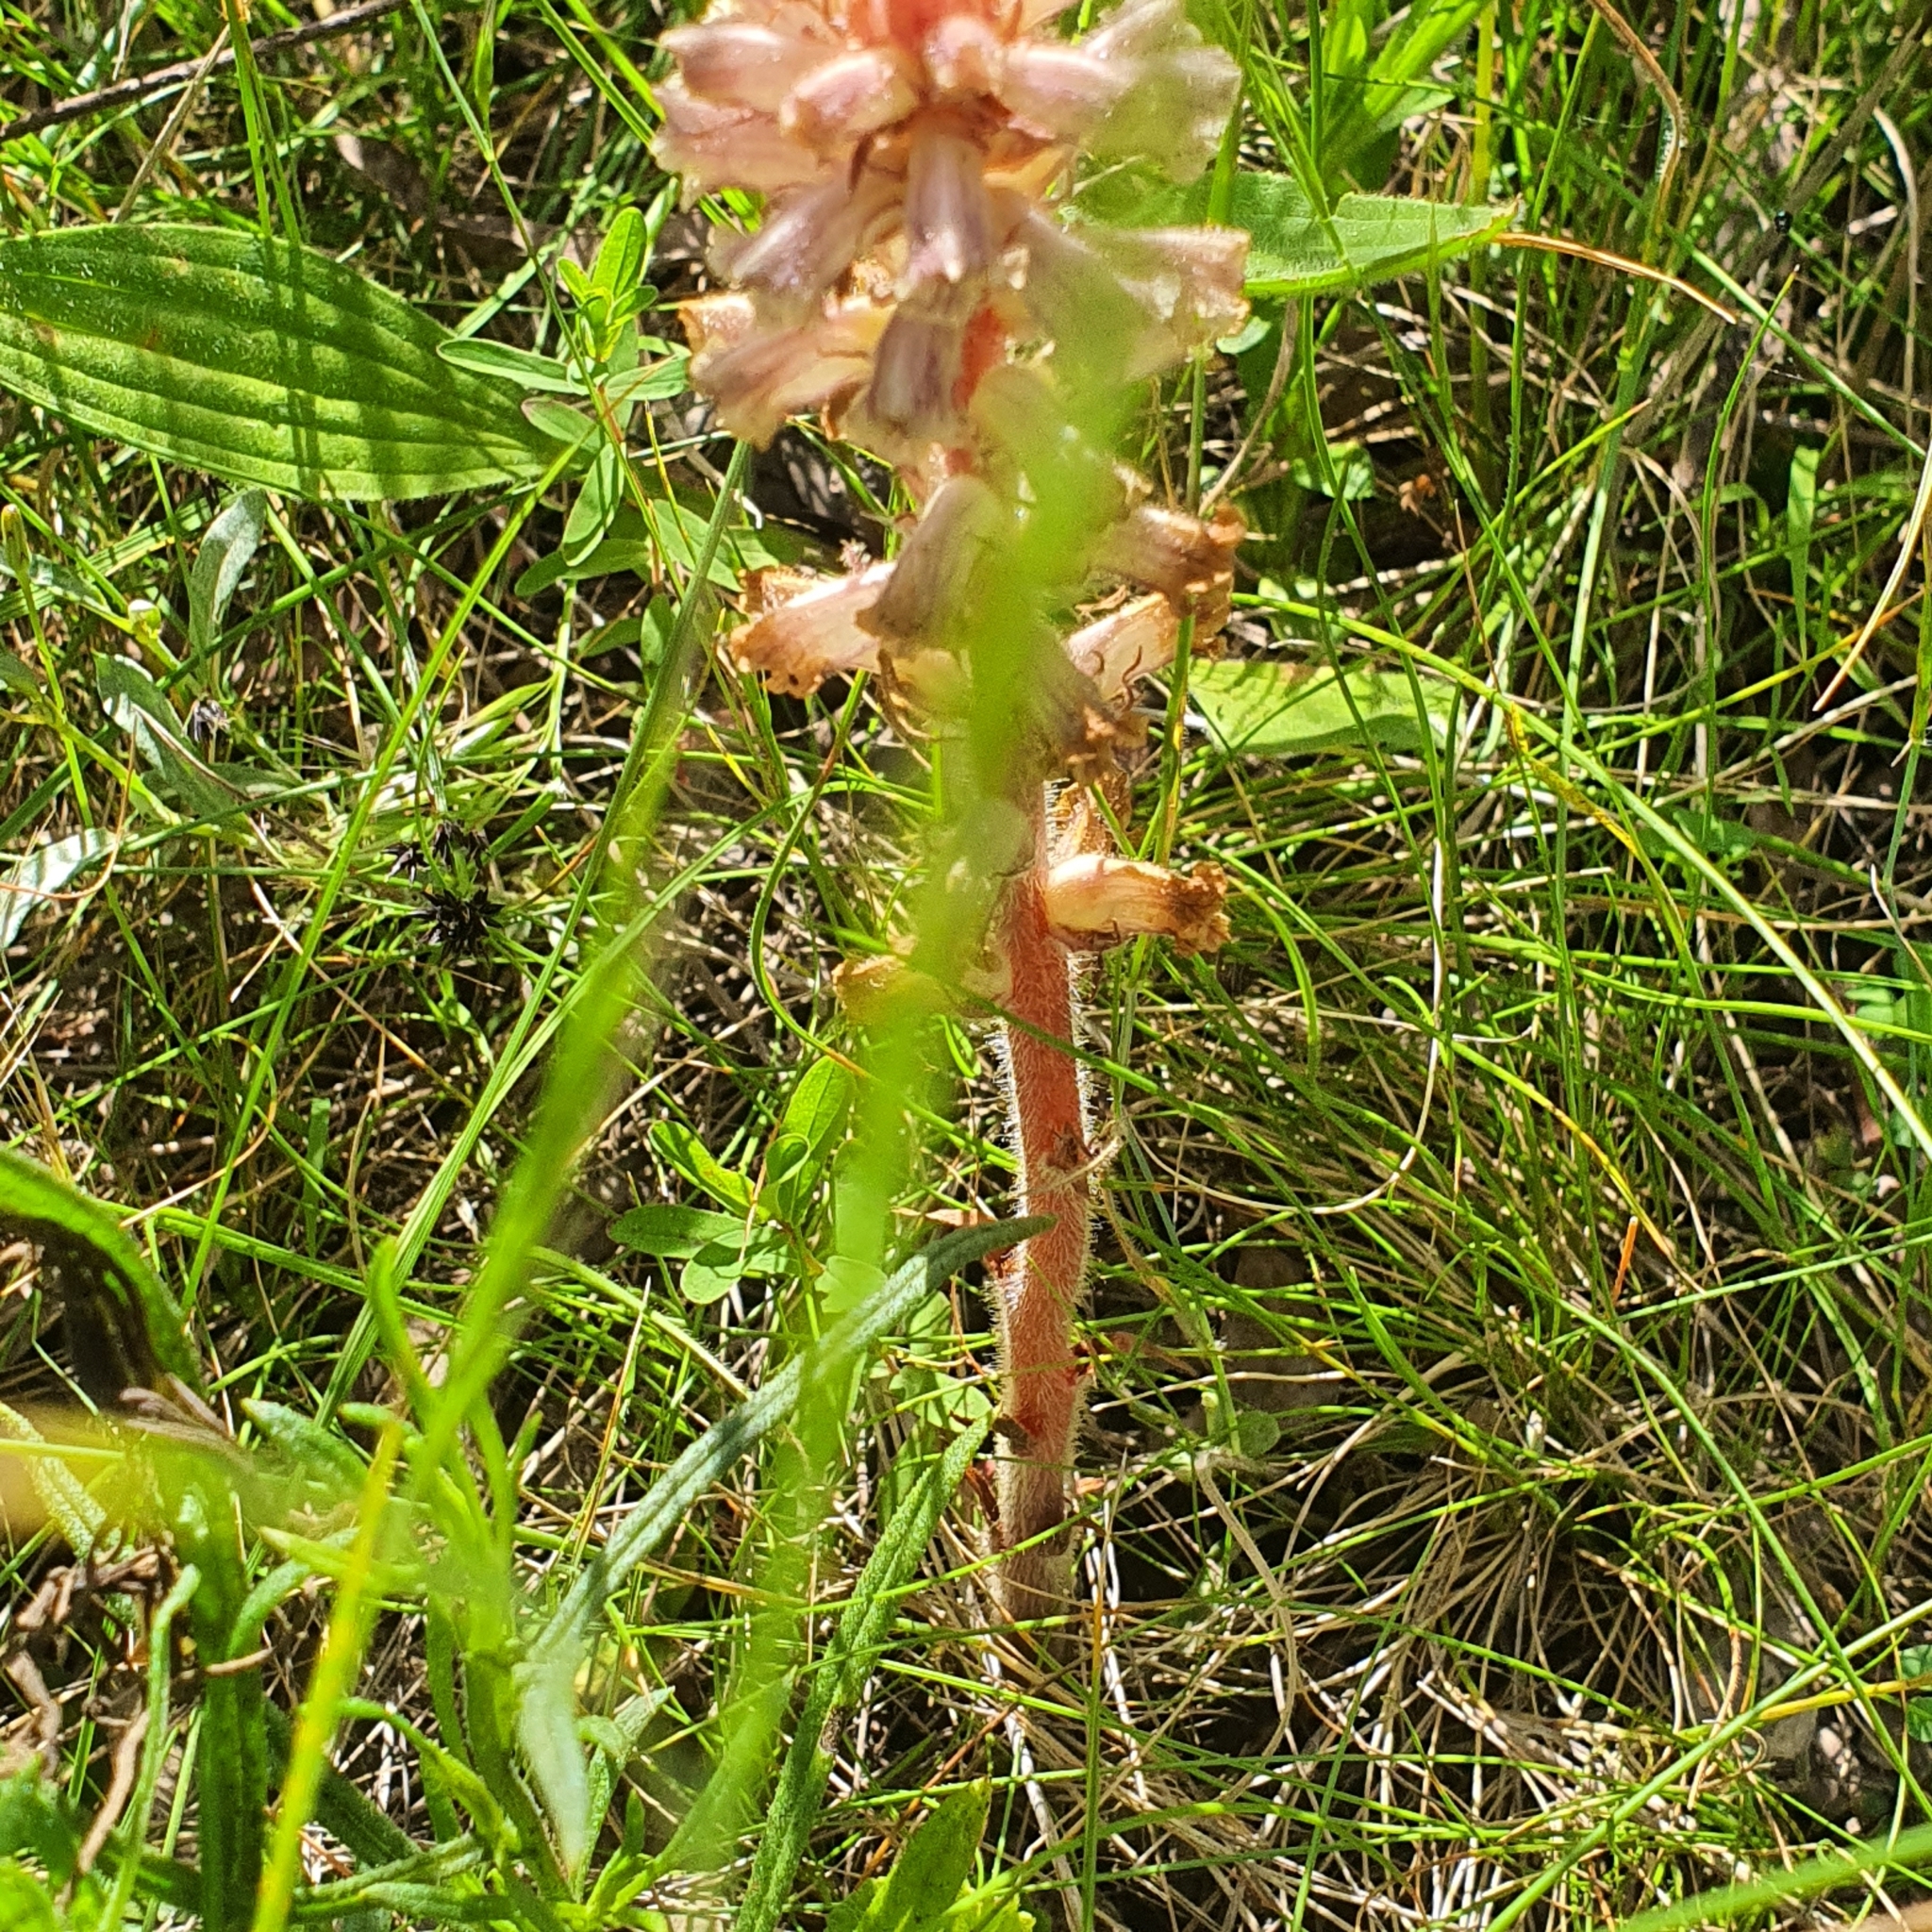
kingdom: Plantae
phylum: Tracheophyta
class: Magnoliopsida
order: Lamiales
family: Orobanchaceae
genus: Orobanche
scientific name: Orobanche minor
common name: Common broomrape
